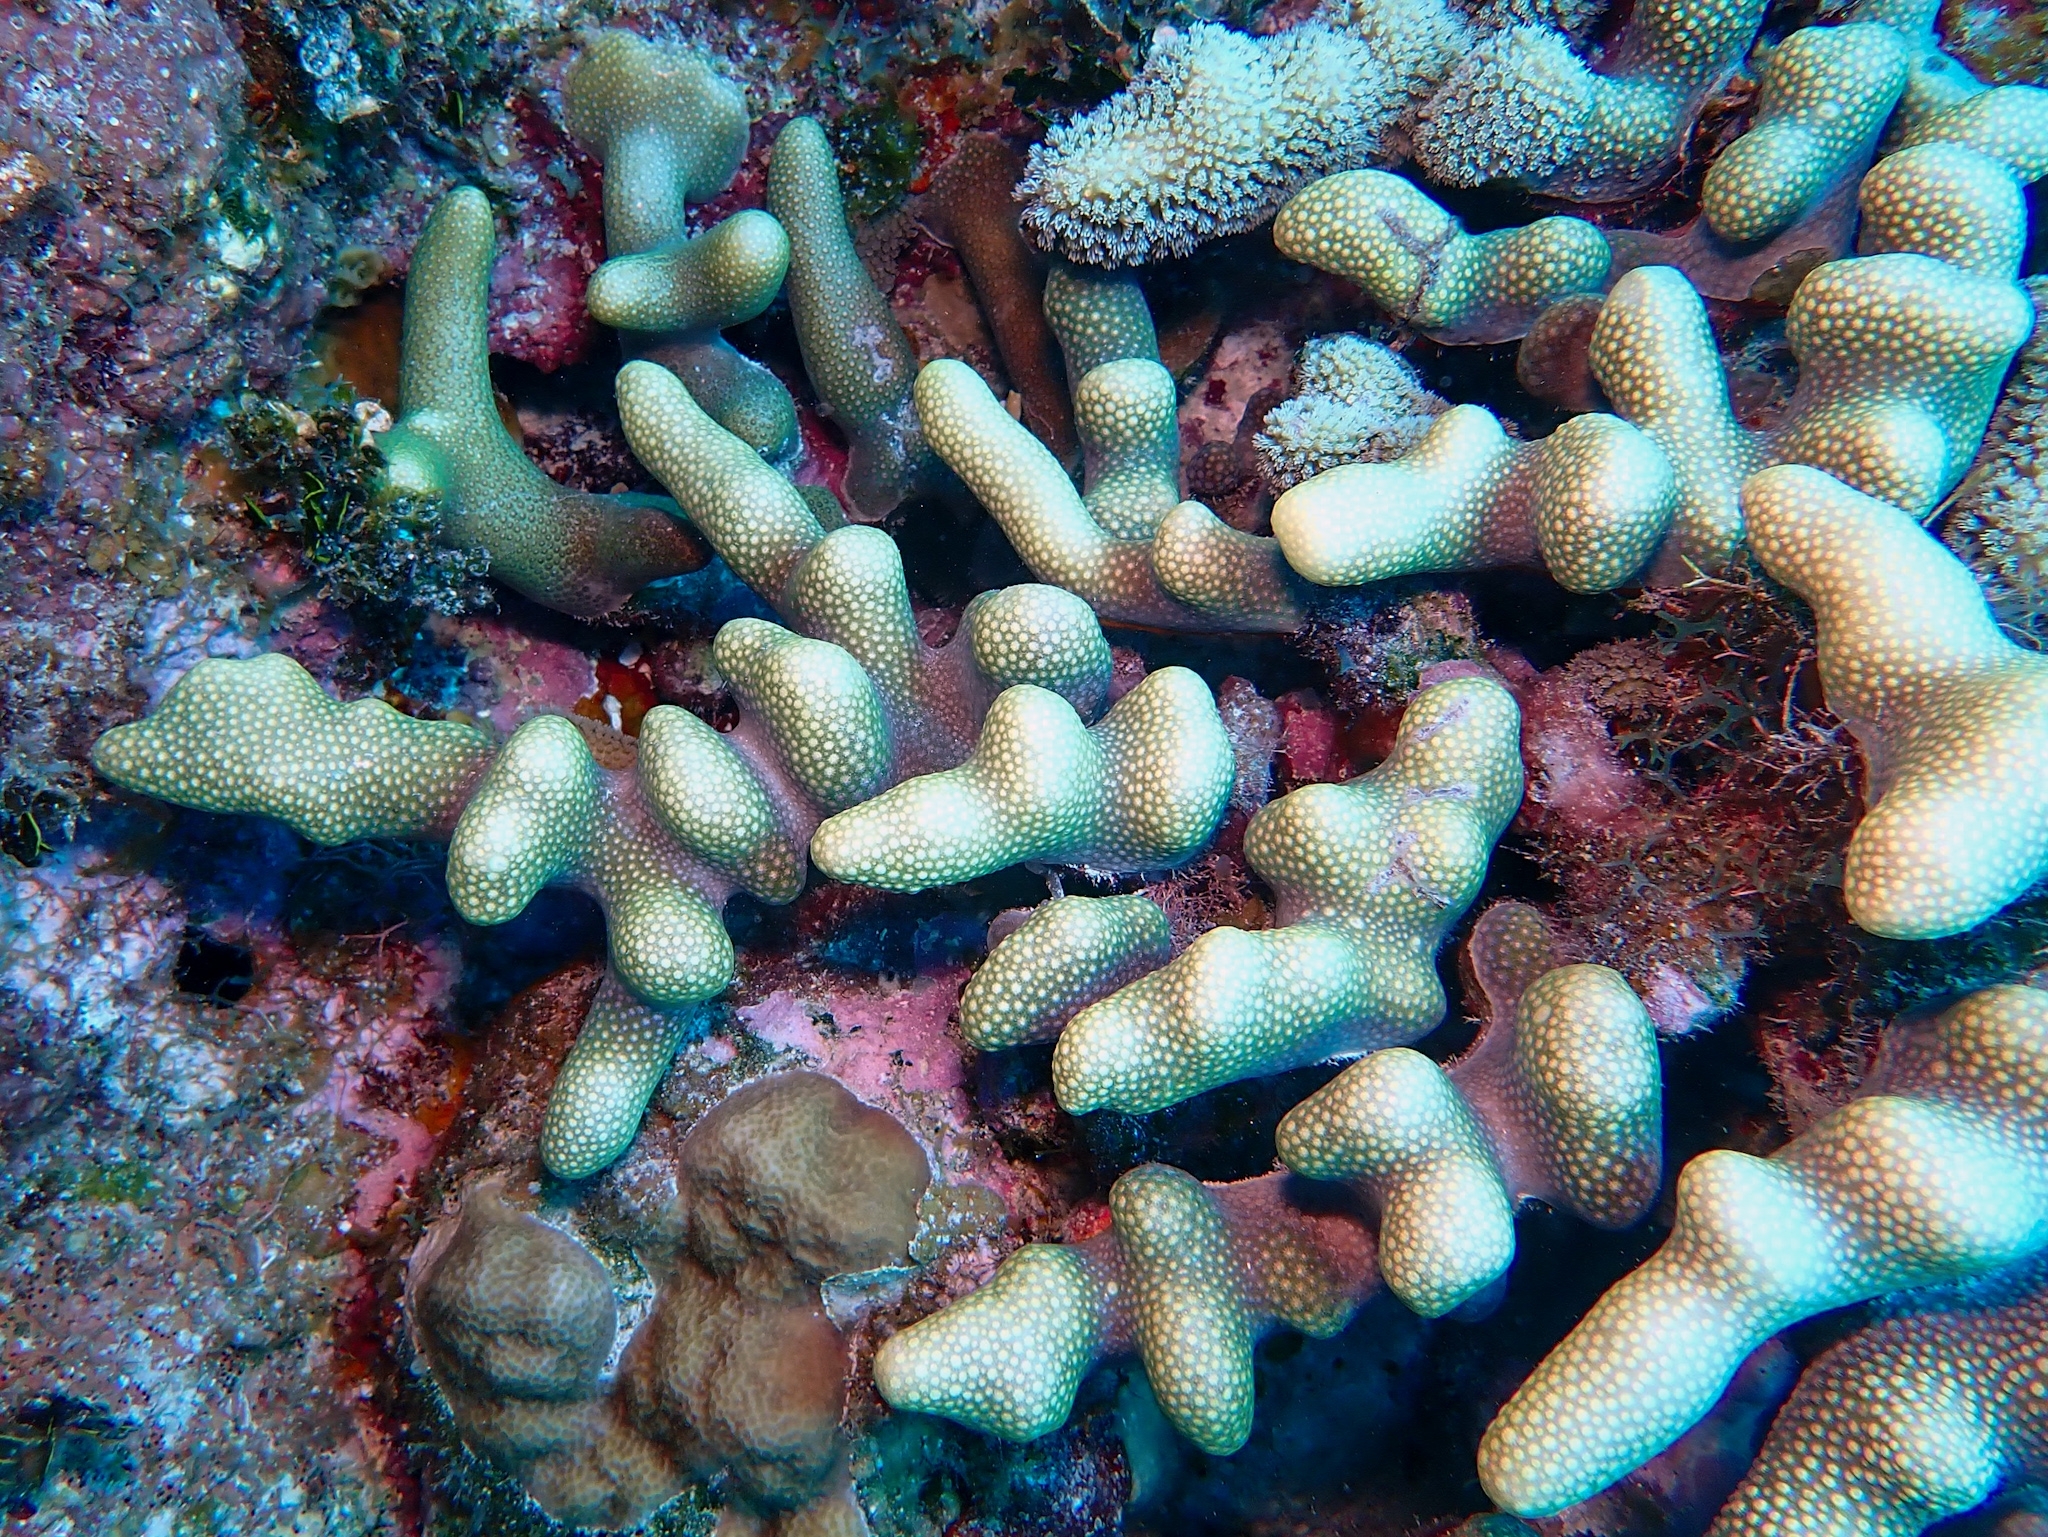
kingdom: Animalia
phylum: Cnidaria
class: Anthozoa
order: Scleractinia
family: Poritidae
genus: Porites
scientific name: Porites porites
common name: Finger coral
